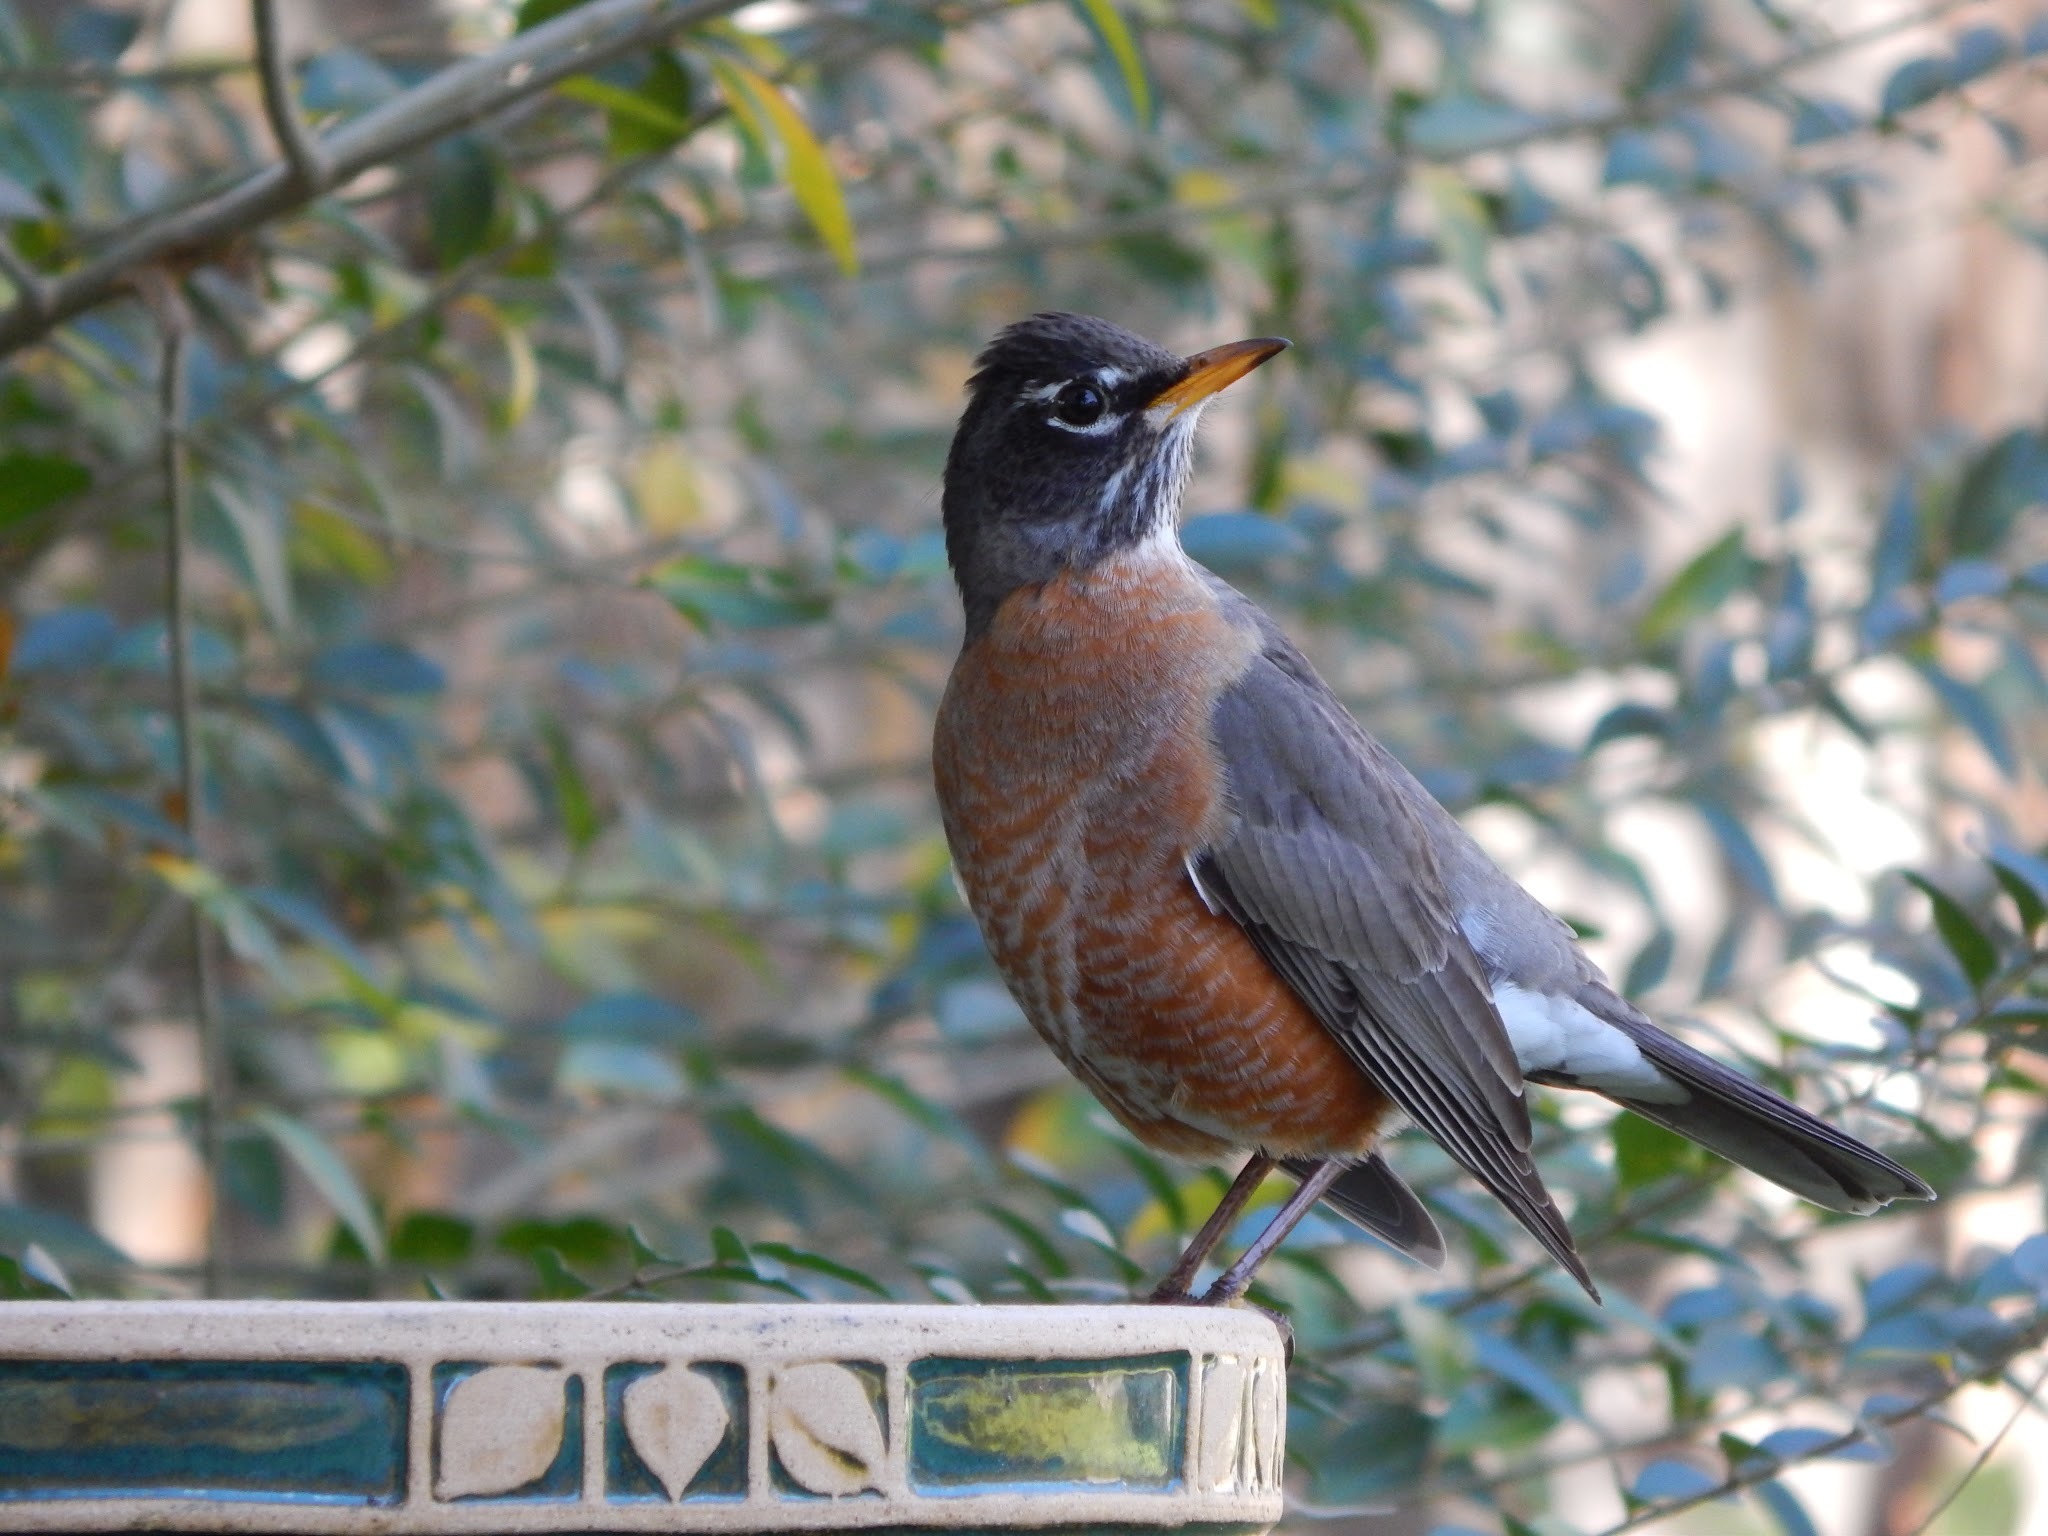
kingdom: Animalia
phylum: Chordata
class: Aves
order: Passeriformes
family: Turdidae
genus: Turdus
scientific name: Turdus migratorius
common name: American robin
